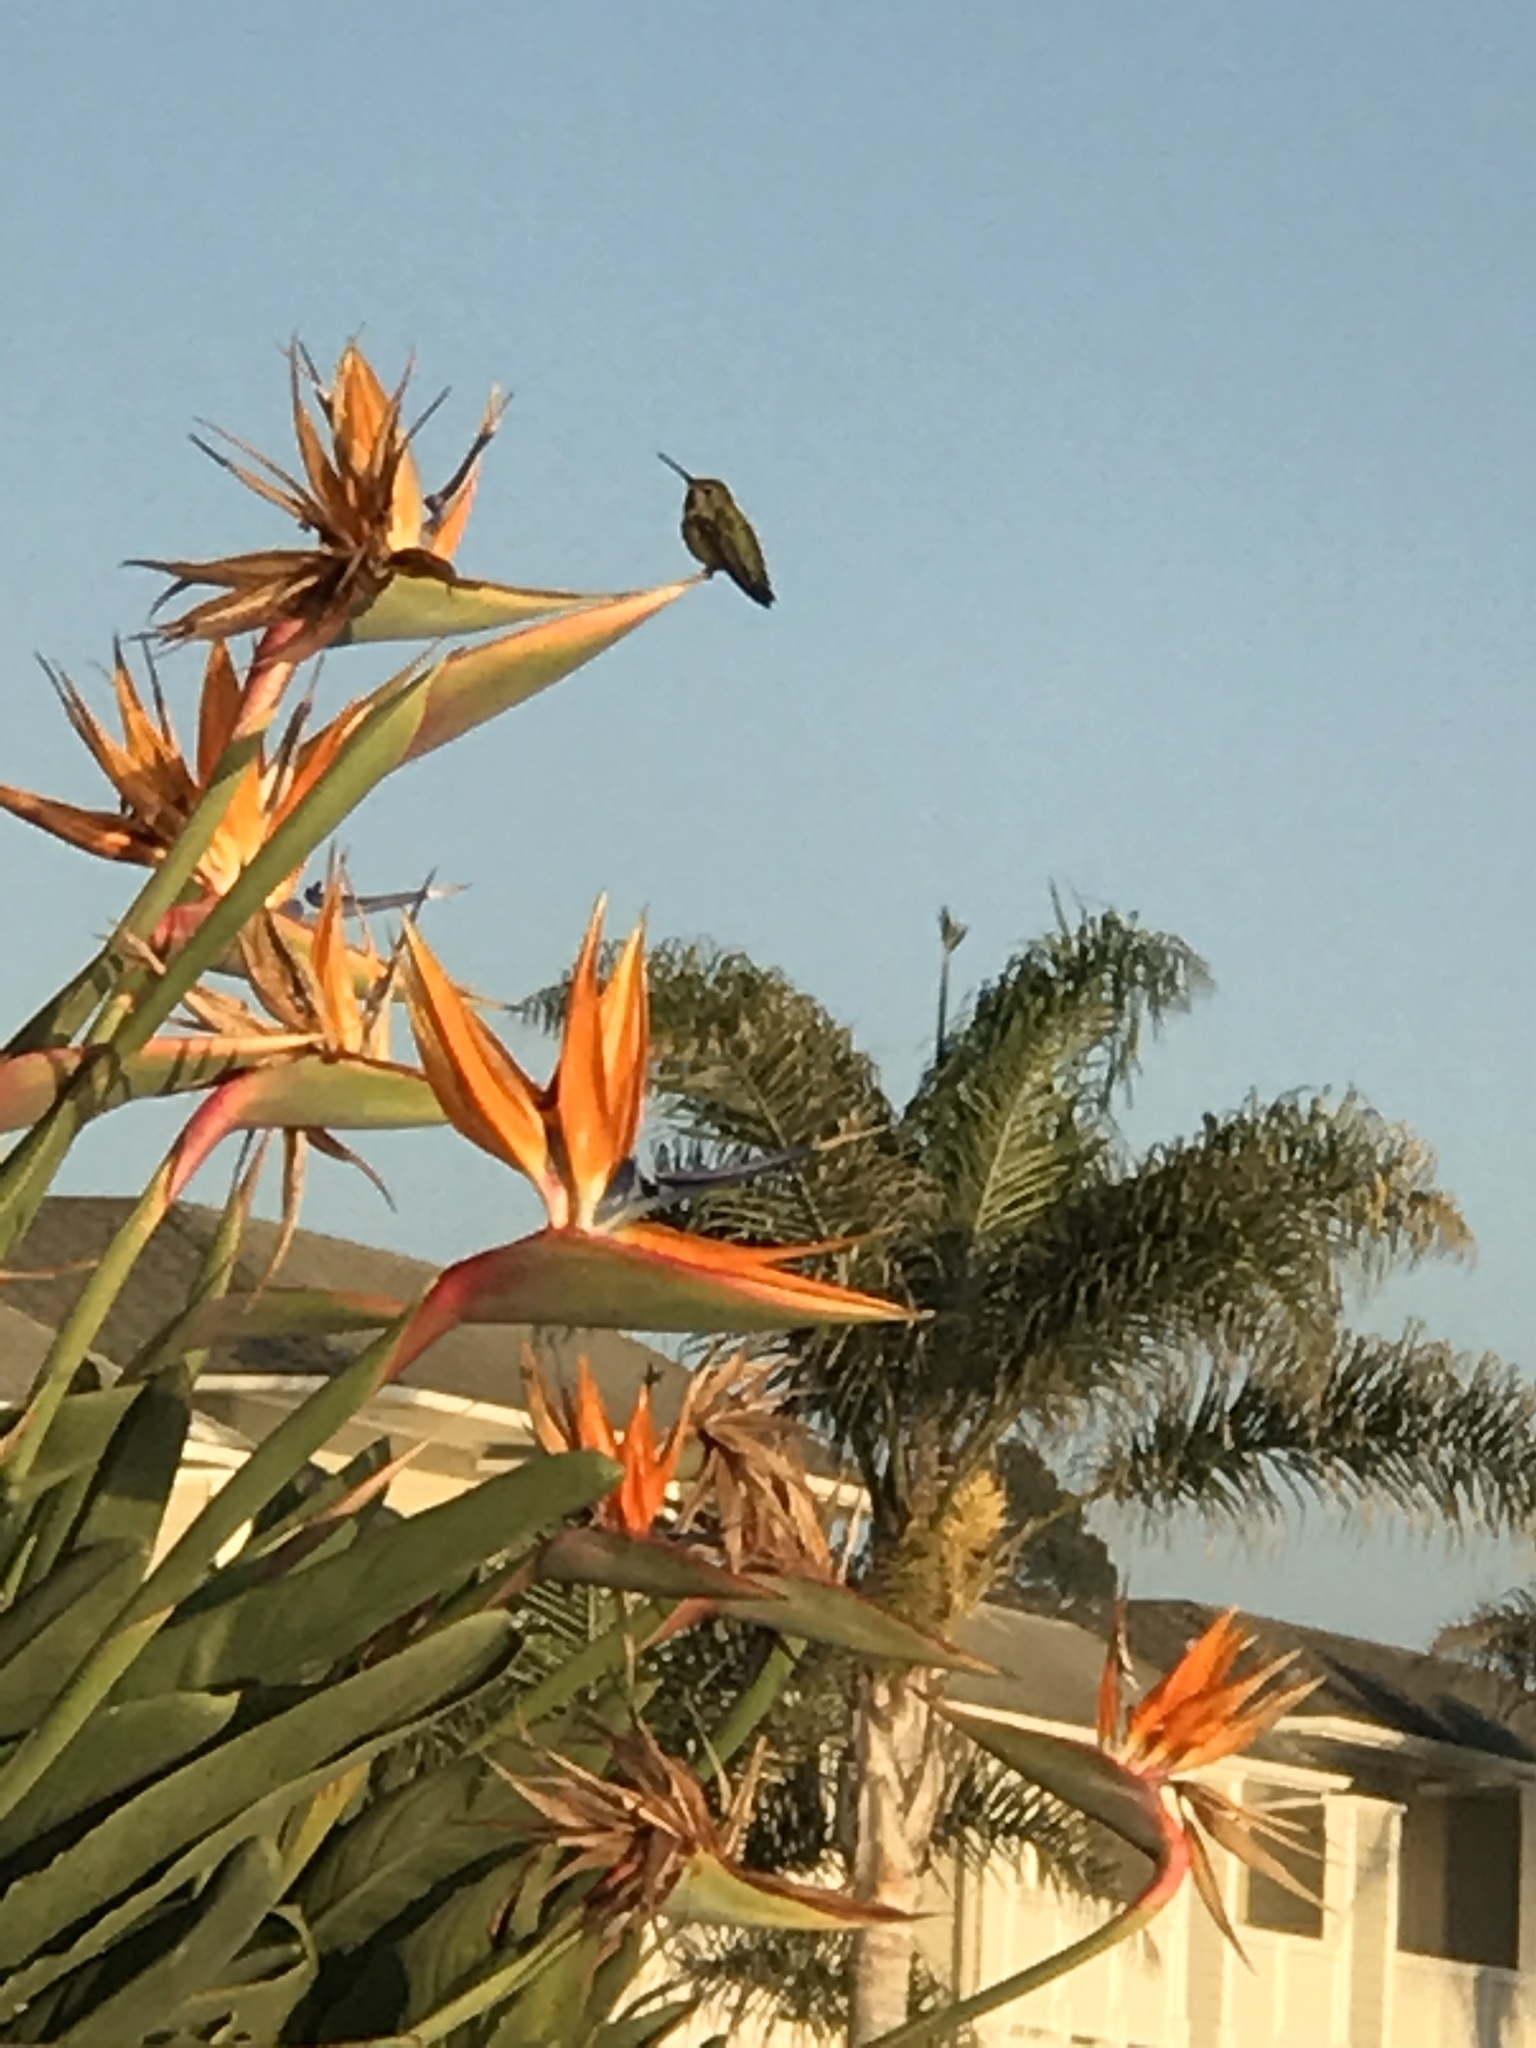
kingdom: Animalia
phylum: Chordata
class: Aves
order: Apodiformes
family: Trochilidae
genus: Calypte
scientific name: Calypte anna
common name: Anna's hummingbird
